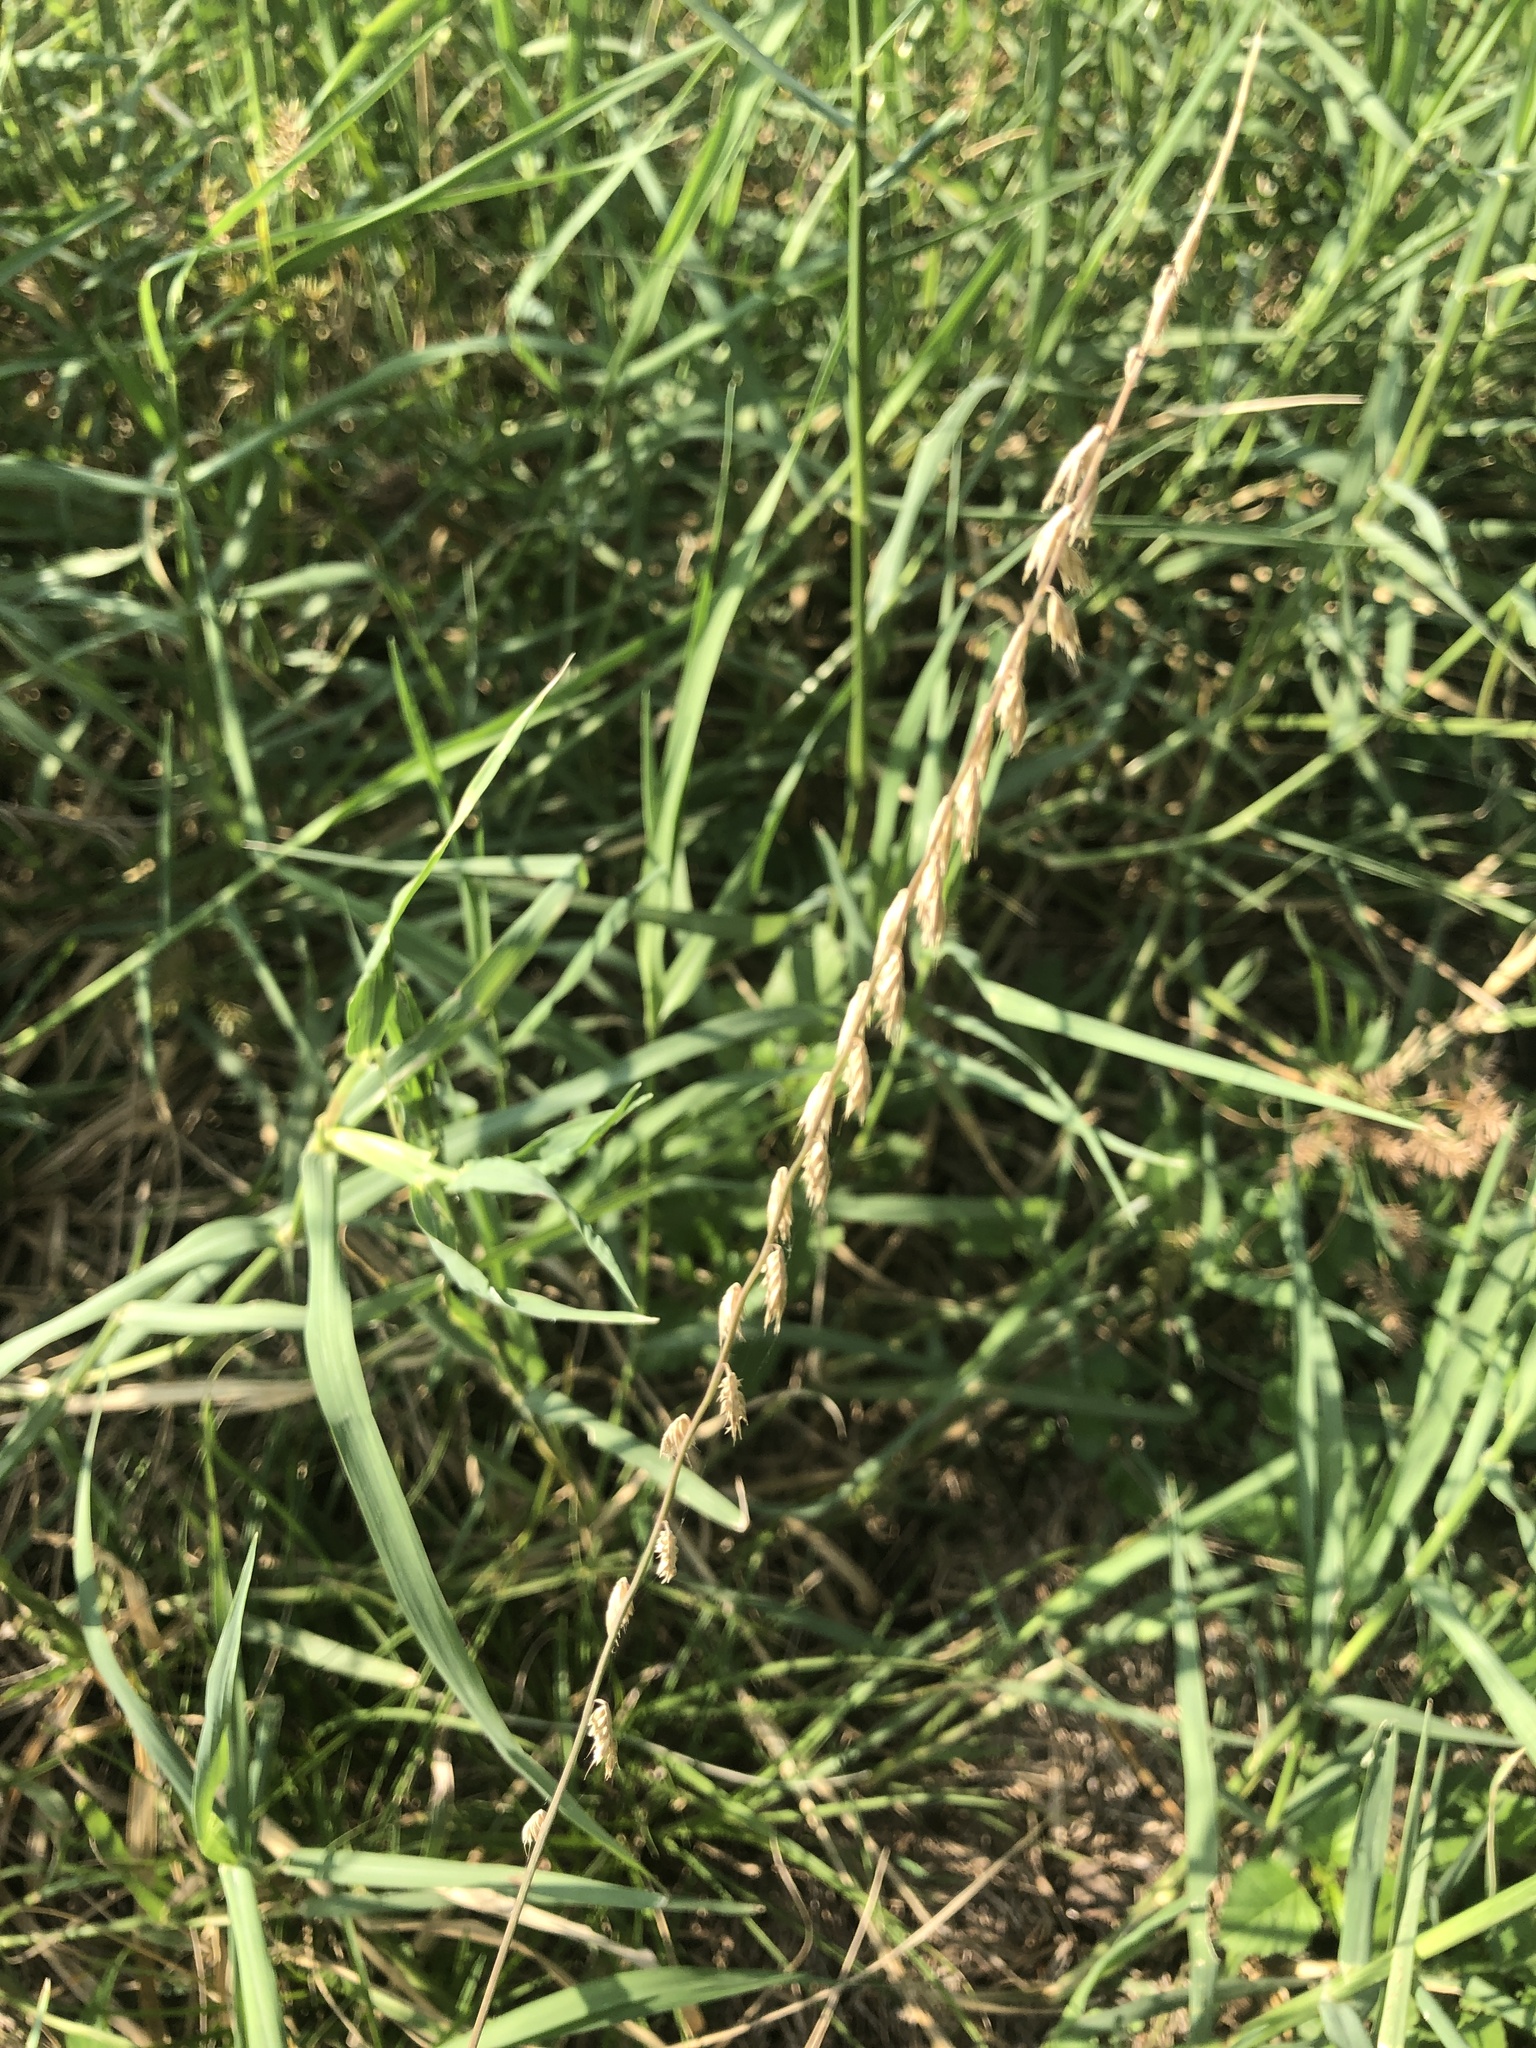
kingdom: Plantae
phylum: Tracheophyta
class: Liliopsida
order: Poales
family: Poaceae
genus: Bouteloua
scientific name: Bouteloua curtipendula
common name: Side-oats grama
